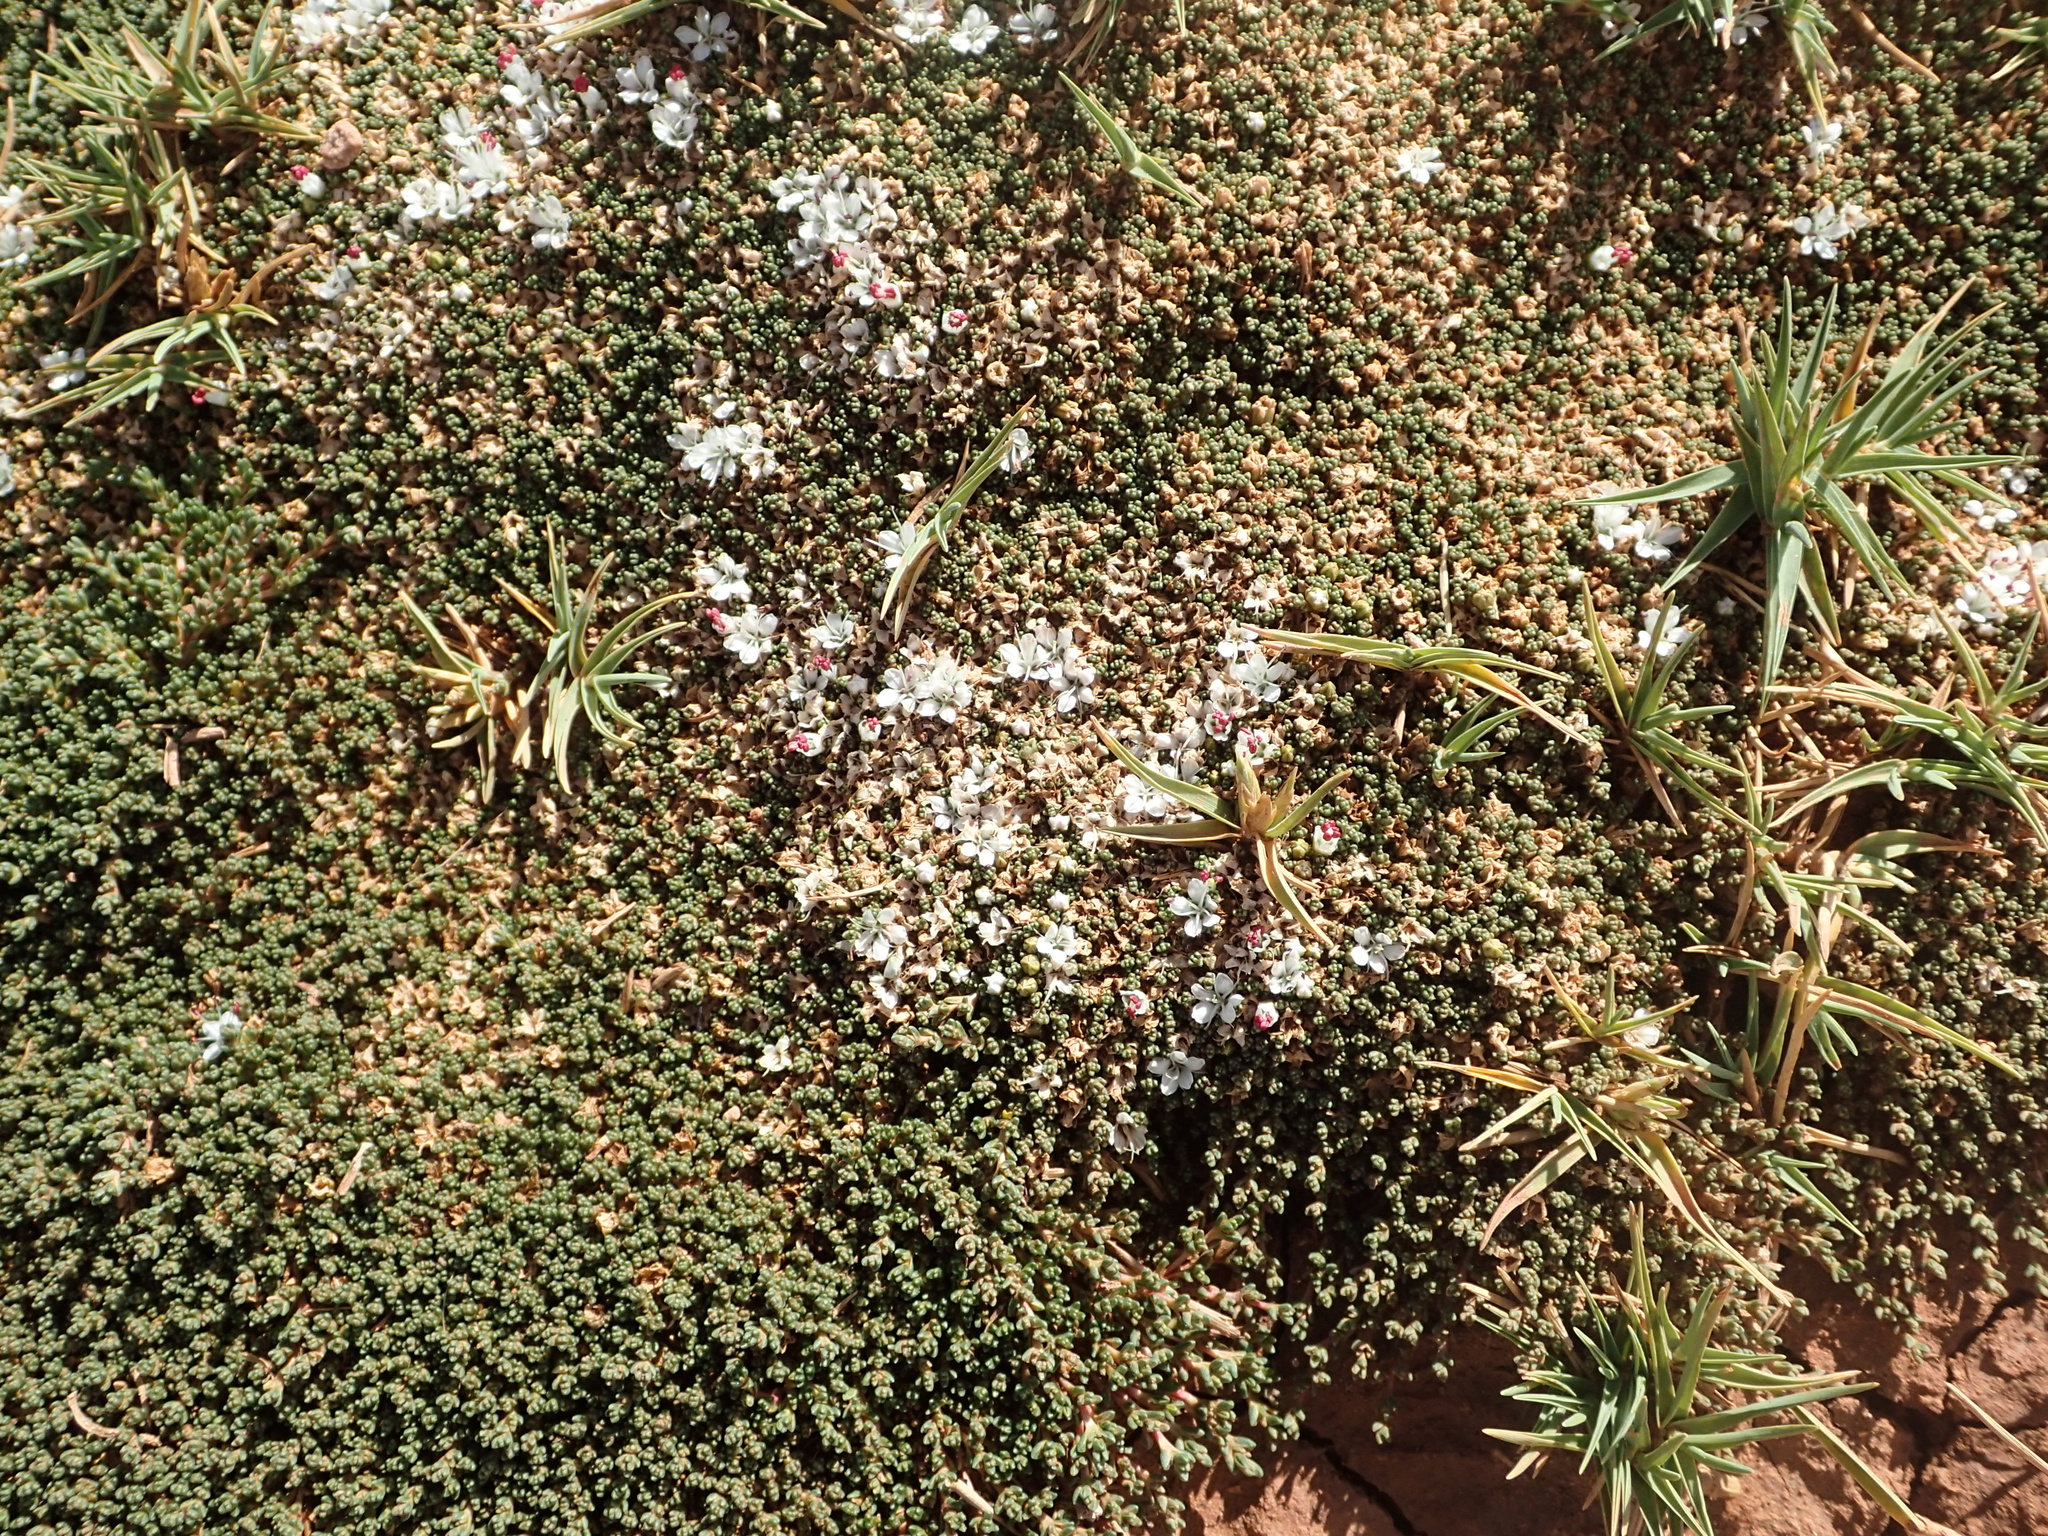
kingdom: Plantae
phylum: Tracheophyta
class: Magnoliopsida
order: Caryophyllales
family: Frankeniaceae
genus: Frankenia
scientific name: Frankenia triandra
